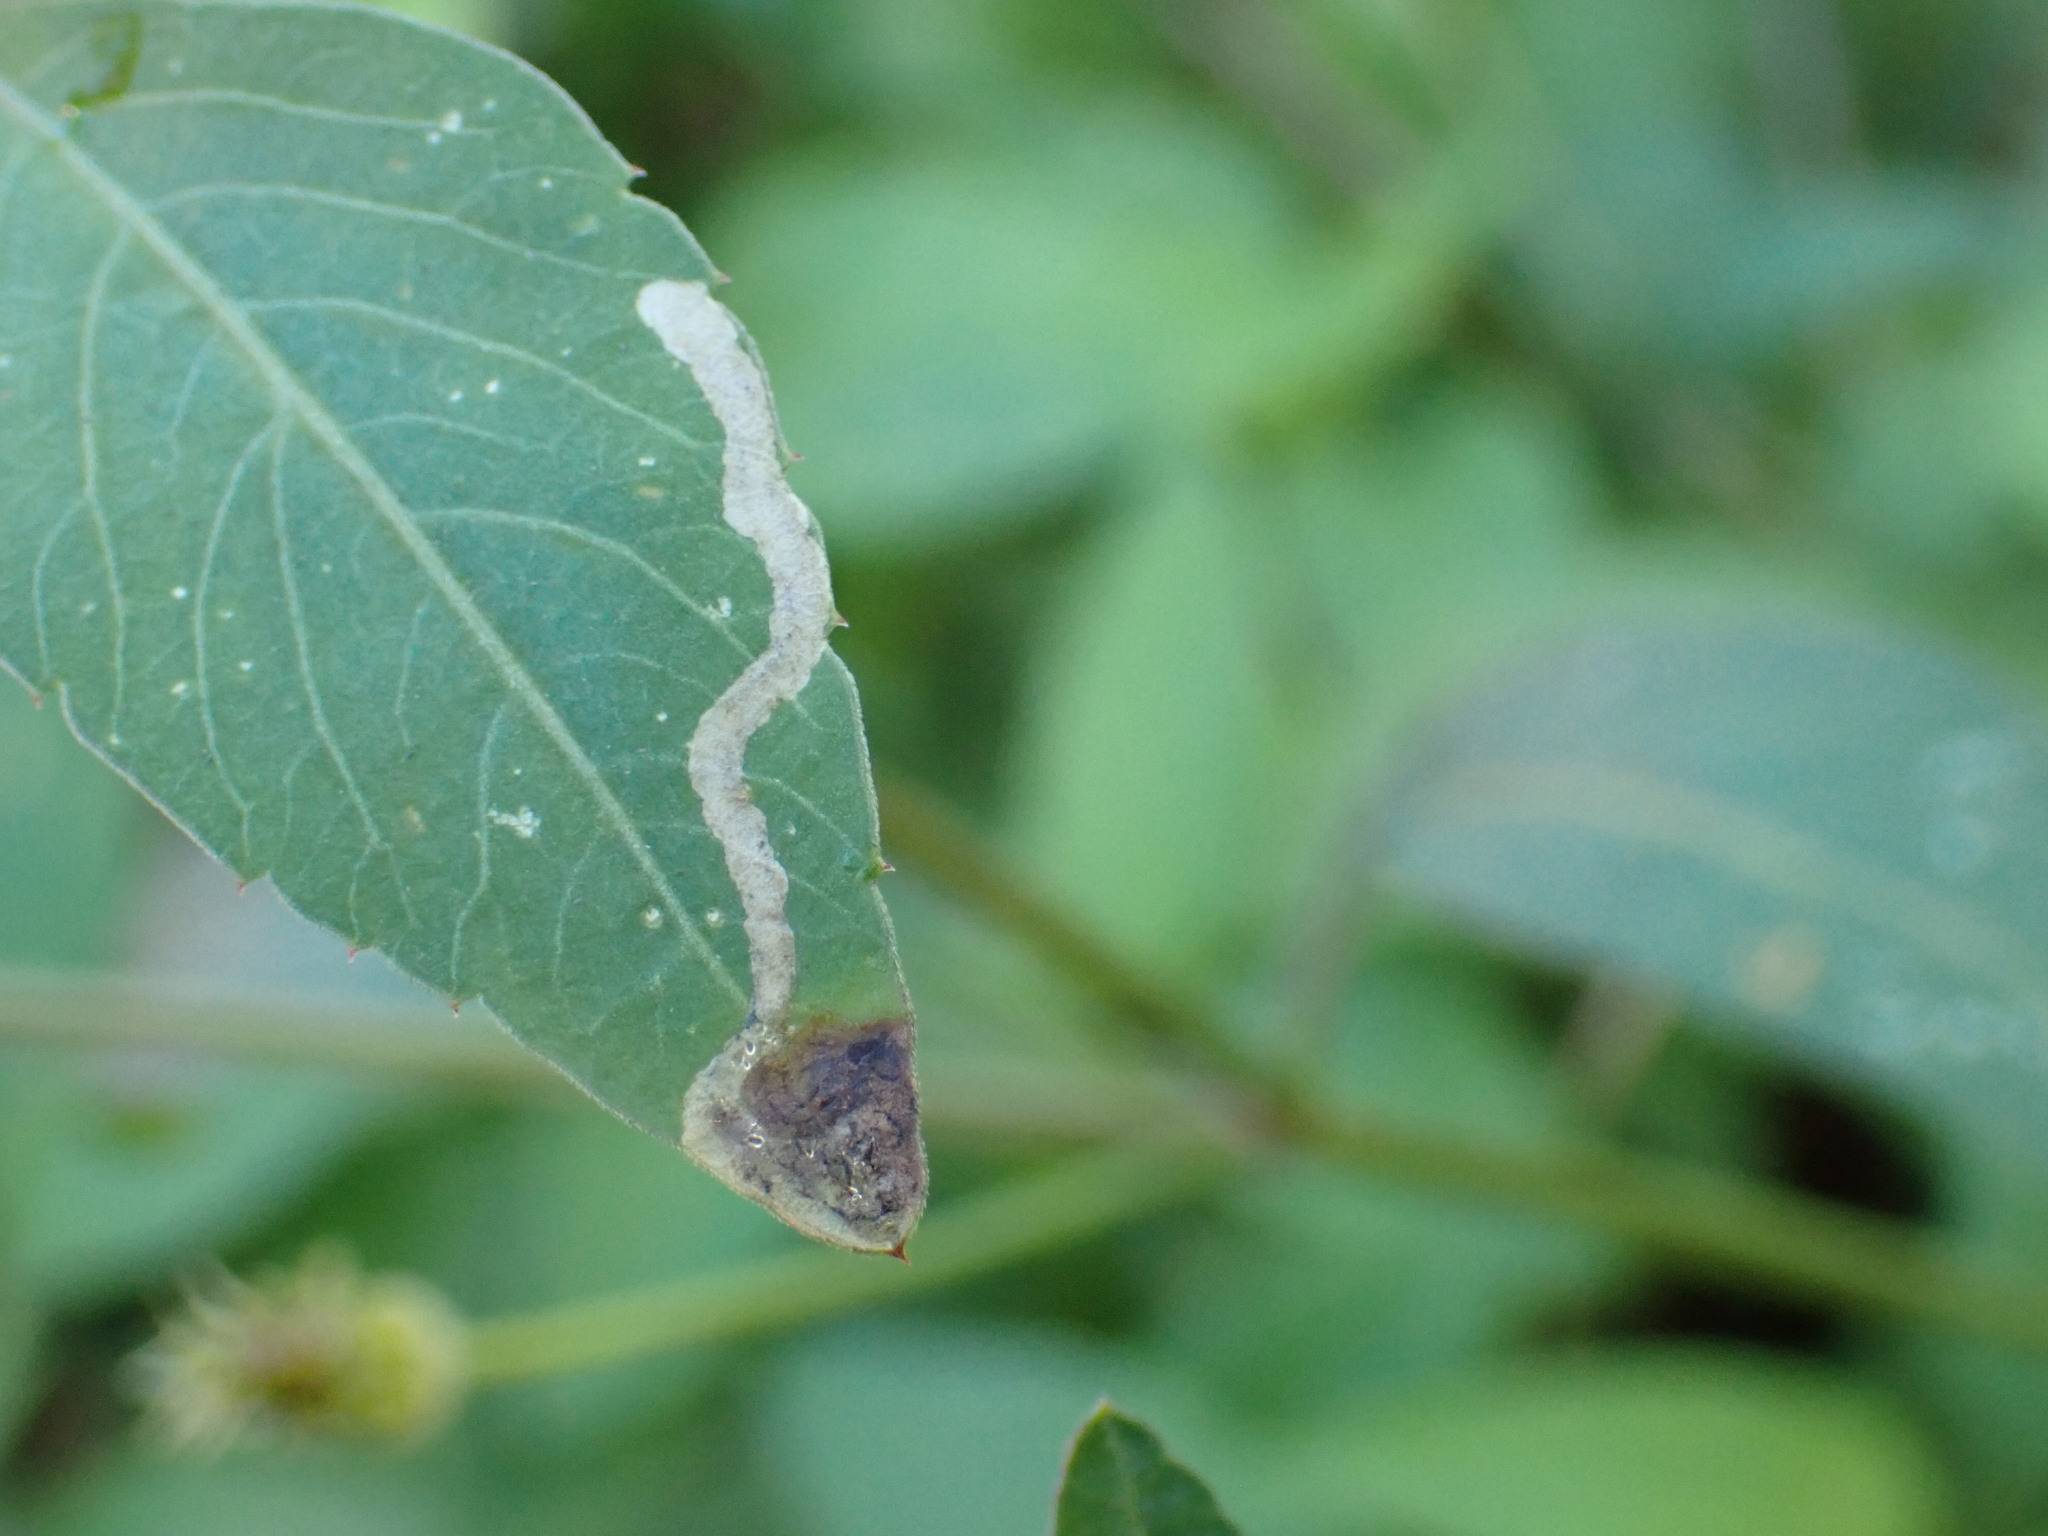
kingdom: Animalia
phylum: Arthropoda
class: Insecta
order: Diptera
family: Agromyzidae
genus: Liriomyza
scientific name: Liriomyza carphephori
